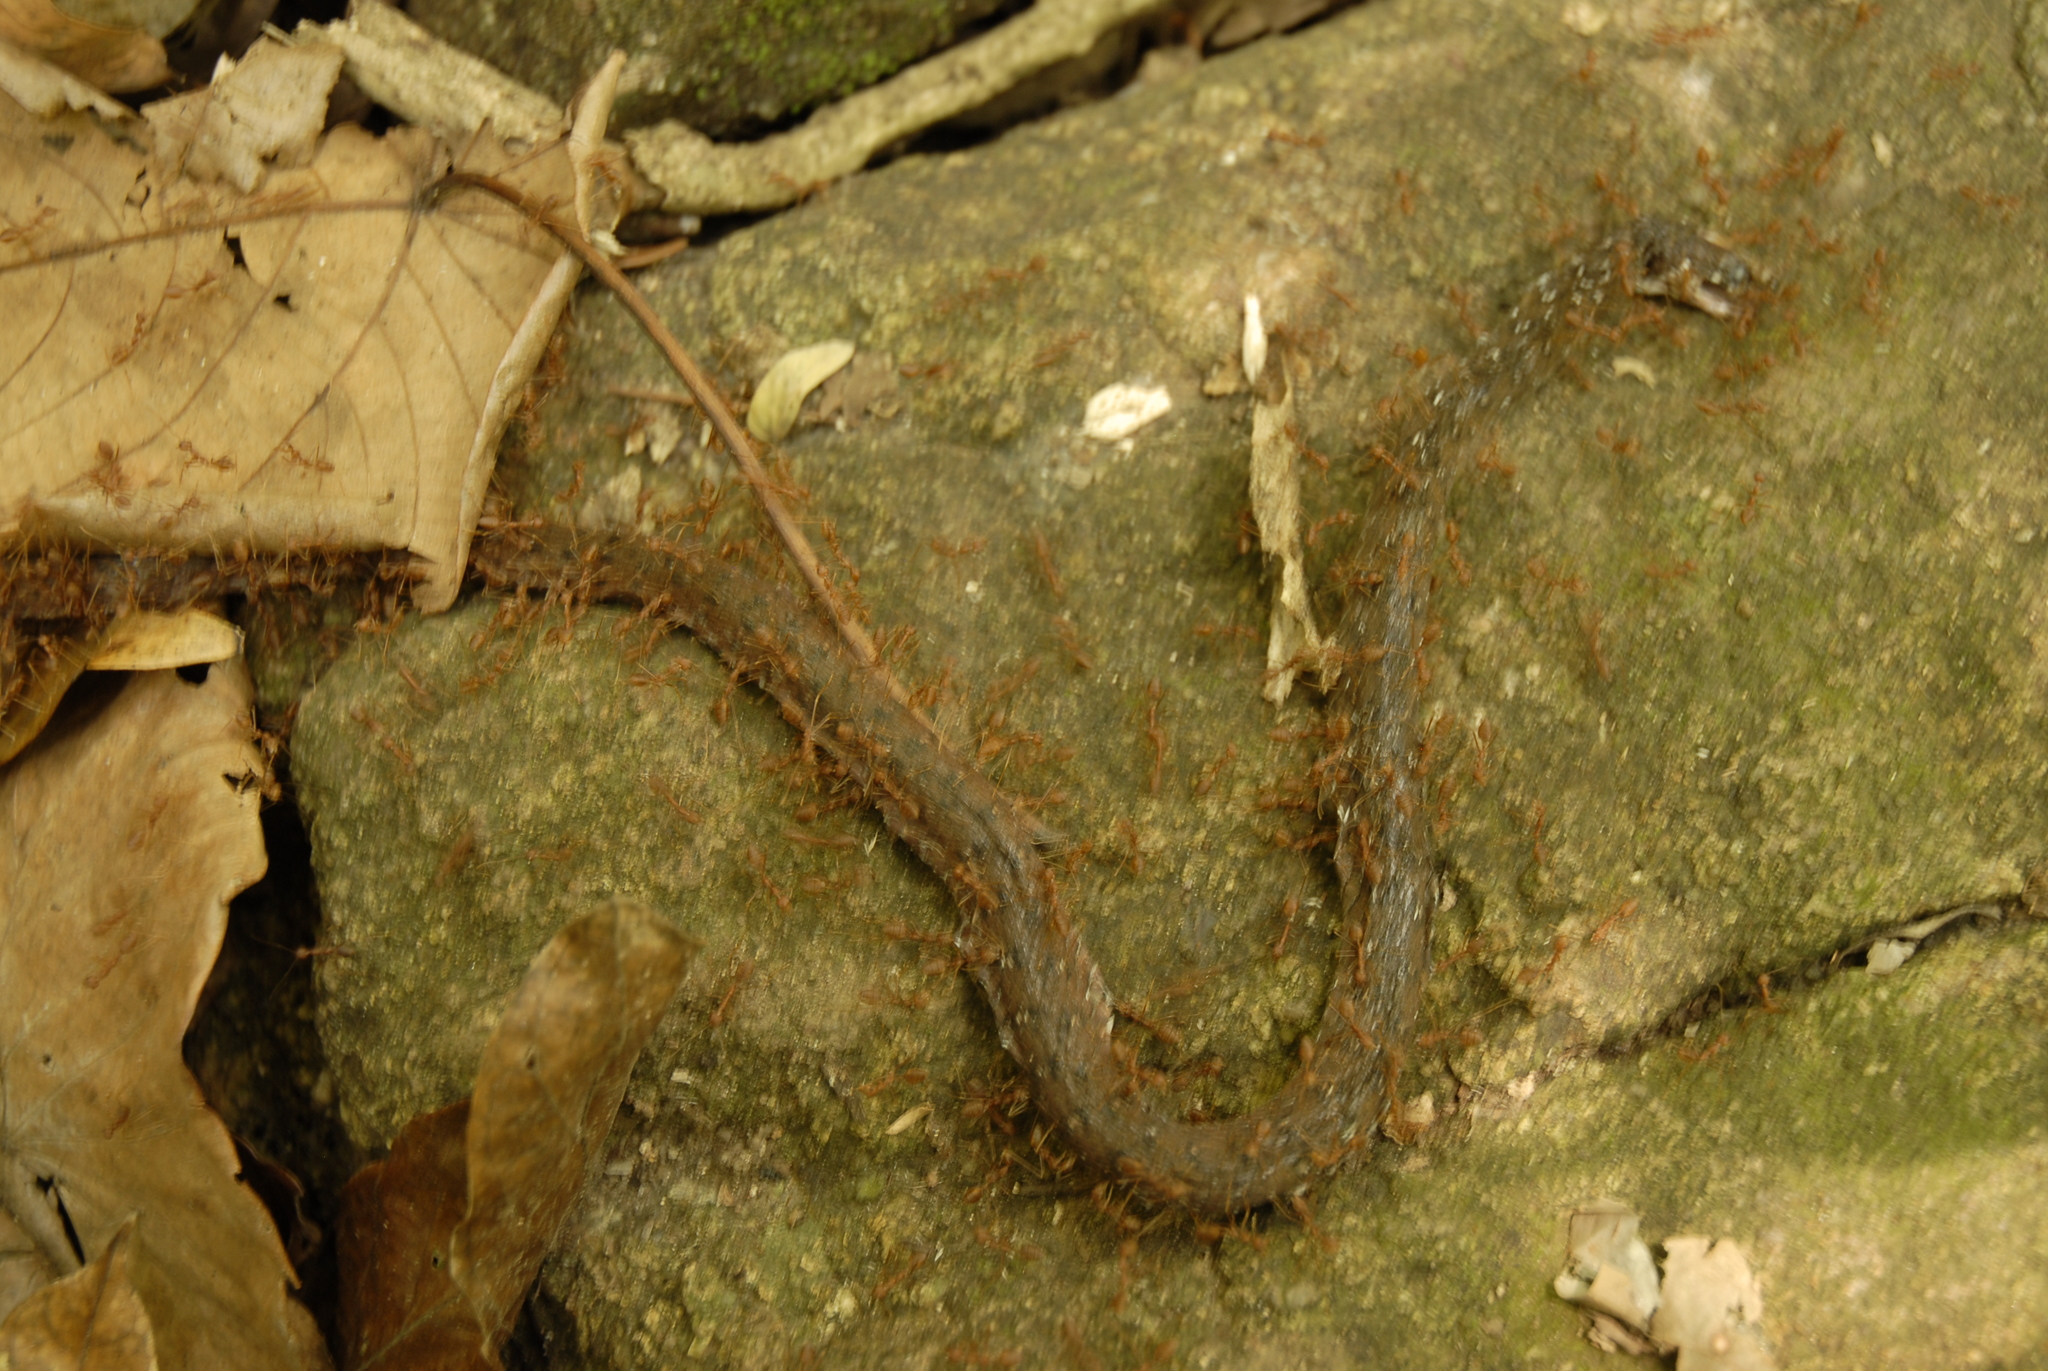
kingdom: Animalia
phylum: Arthropoda
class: Insecta
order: Hymenoptera
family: Formicidae
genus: Oecophylla
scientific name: Oecophylla smaragdina
